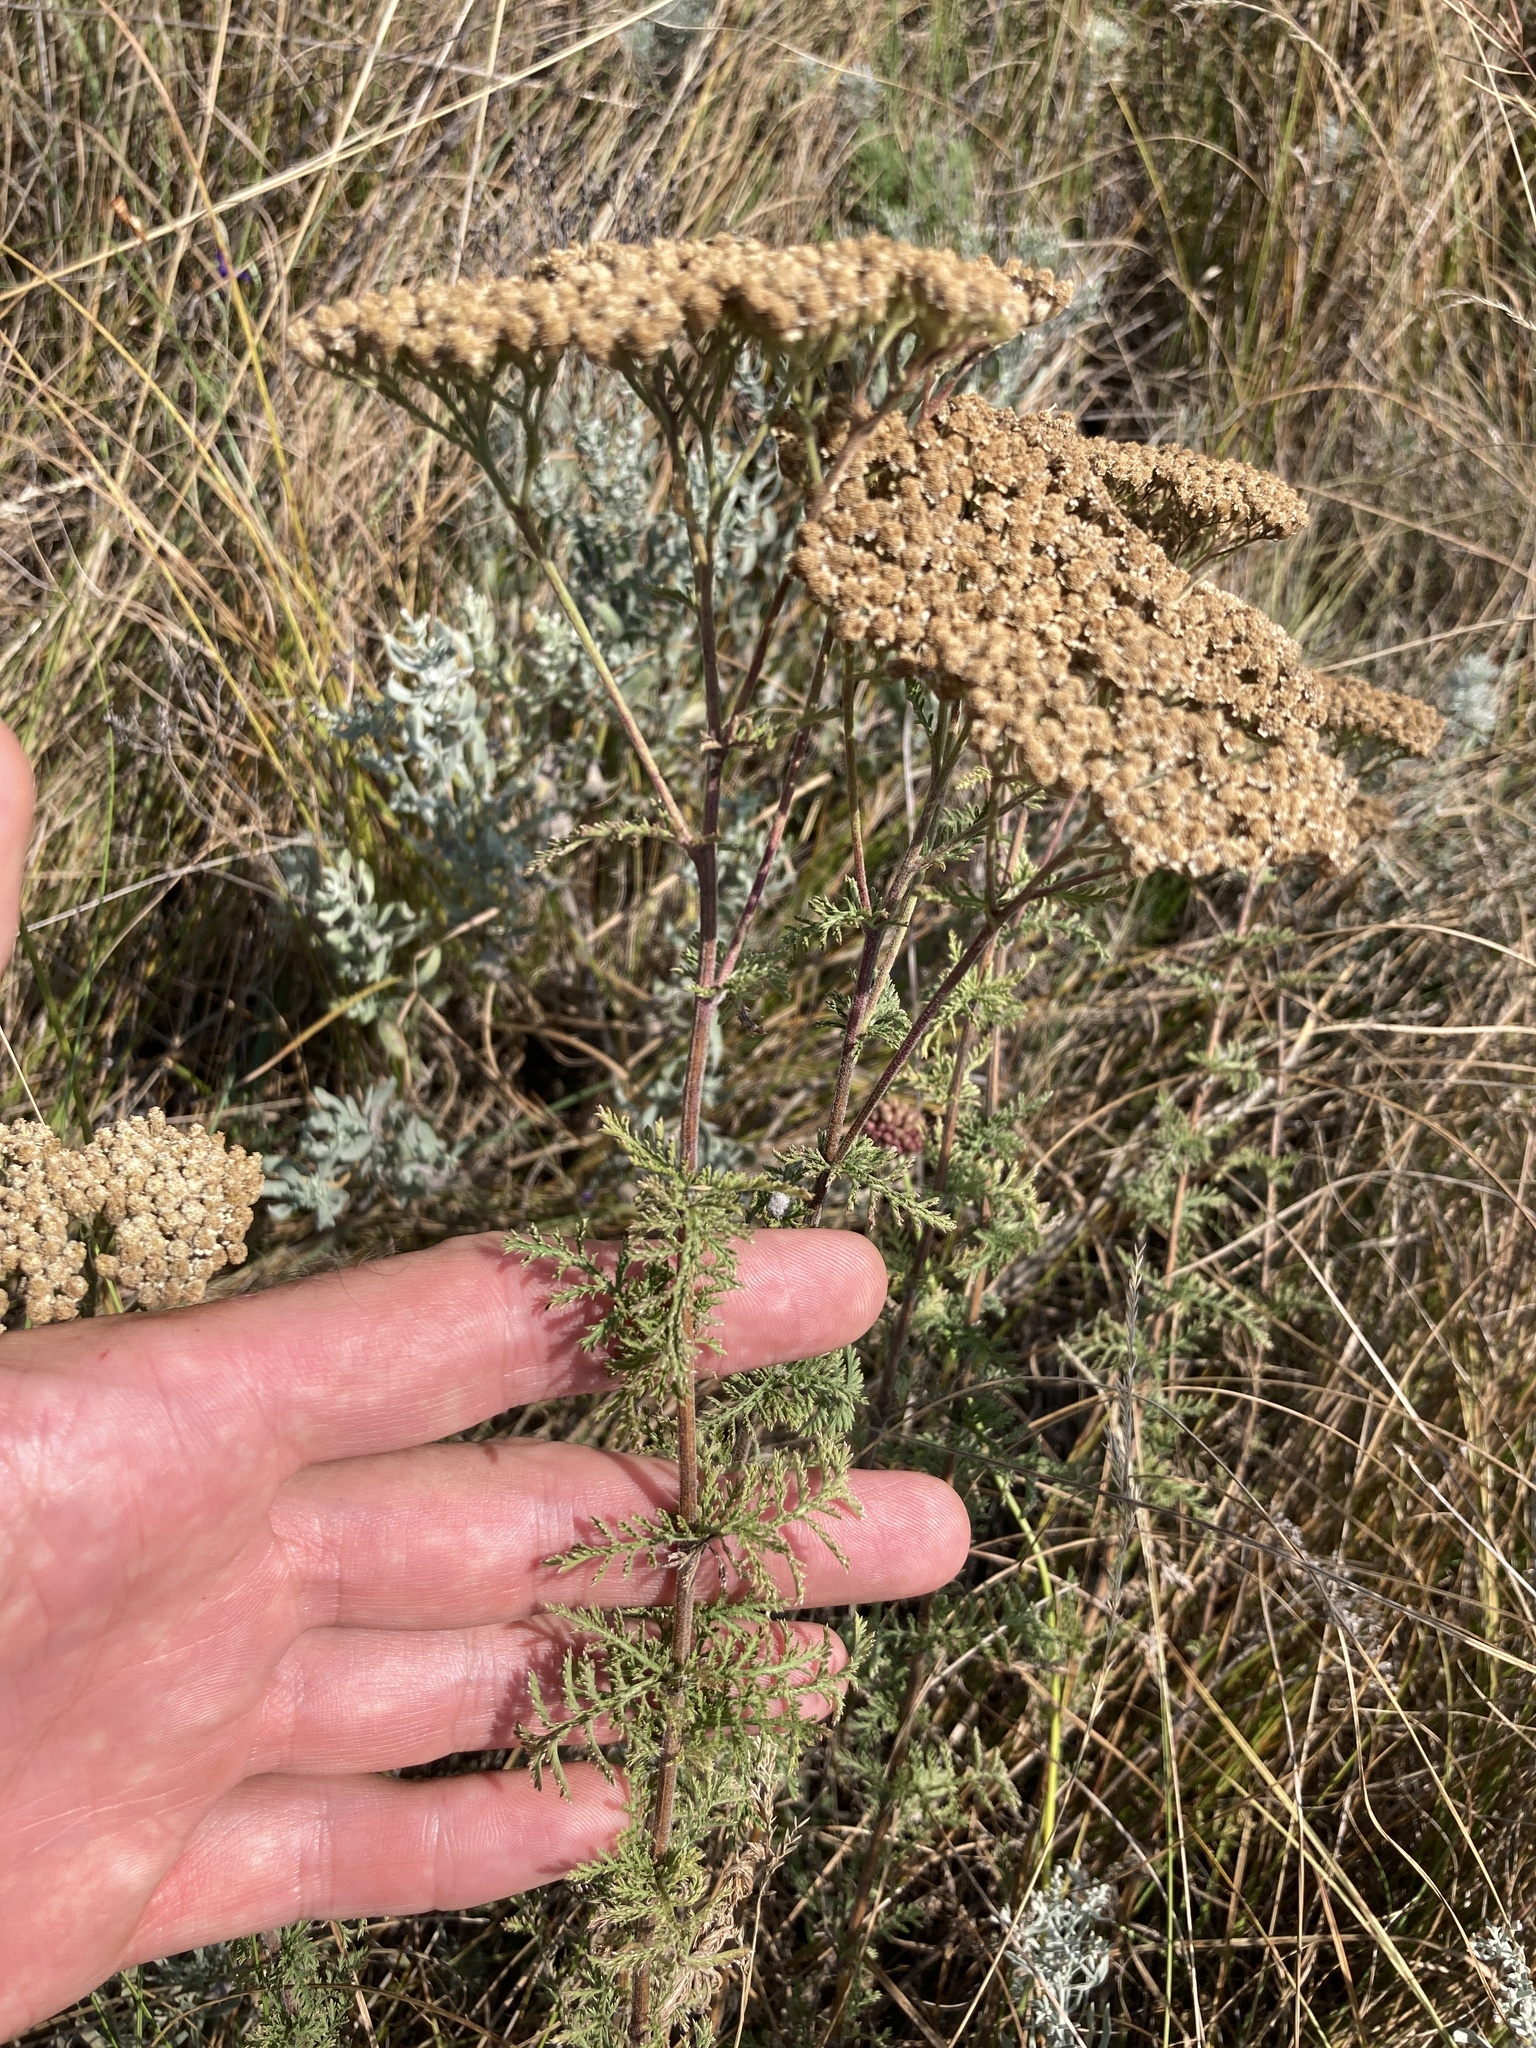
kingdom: Plantae
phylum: Tracheophyta
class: Magnoliopsida
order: Asterales
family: Asteraceae
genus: Achillea
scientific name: Achillea nobilis
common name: Noble yarrow
